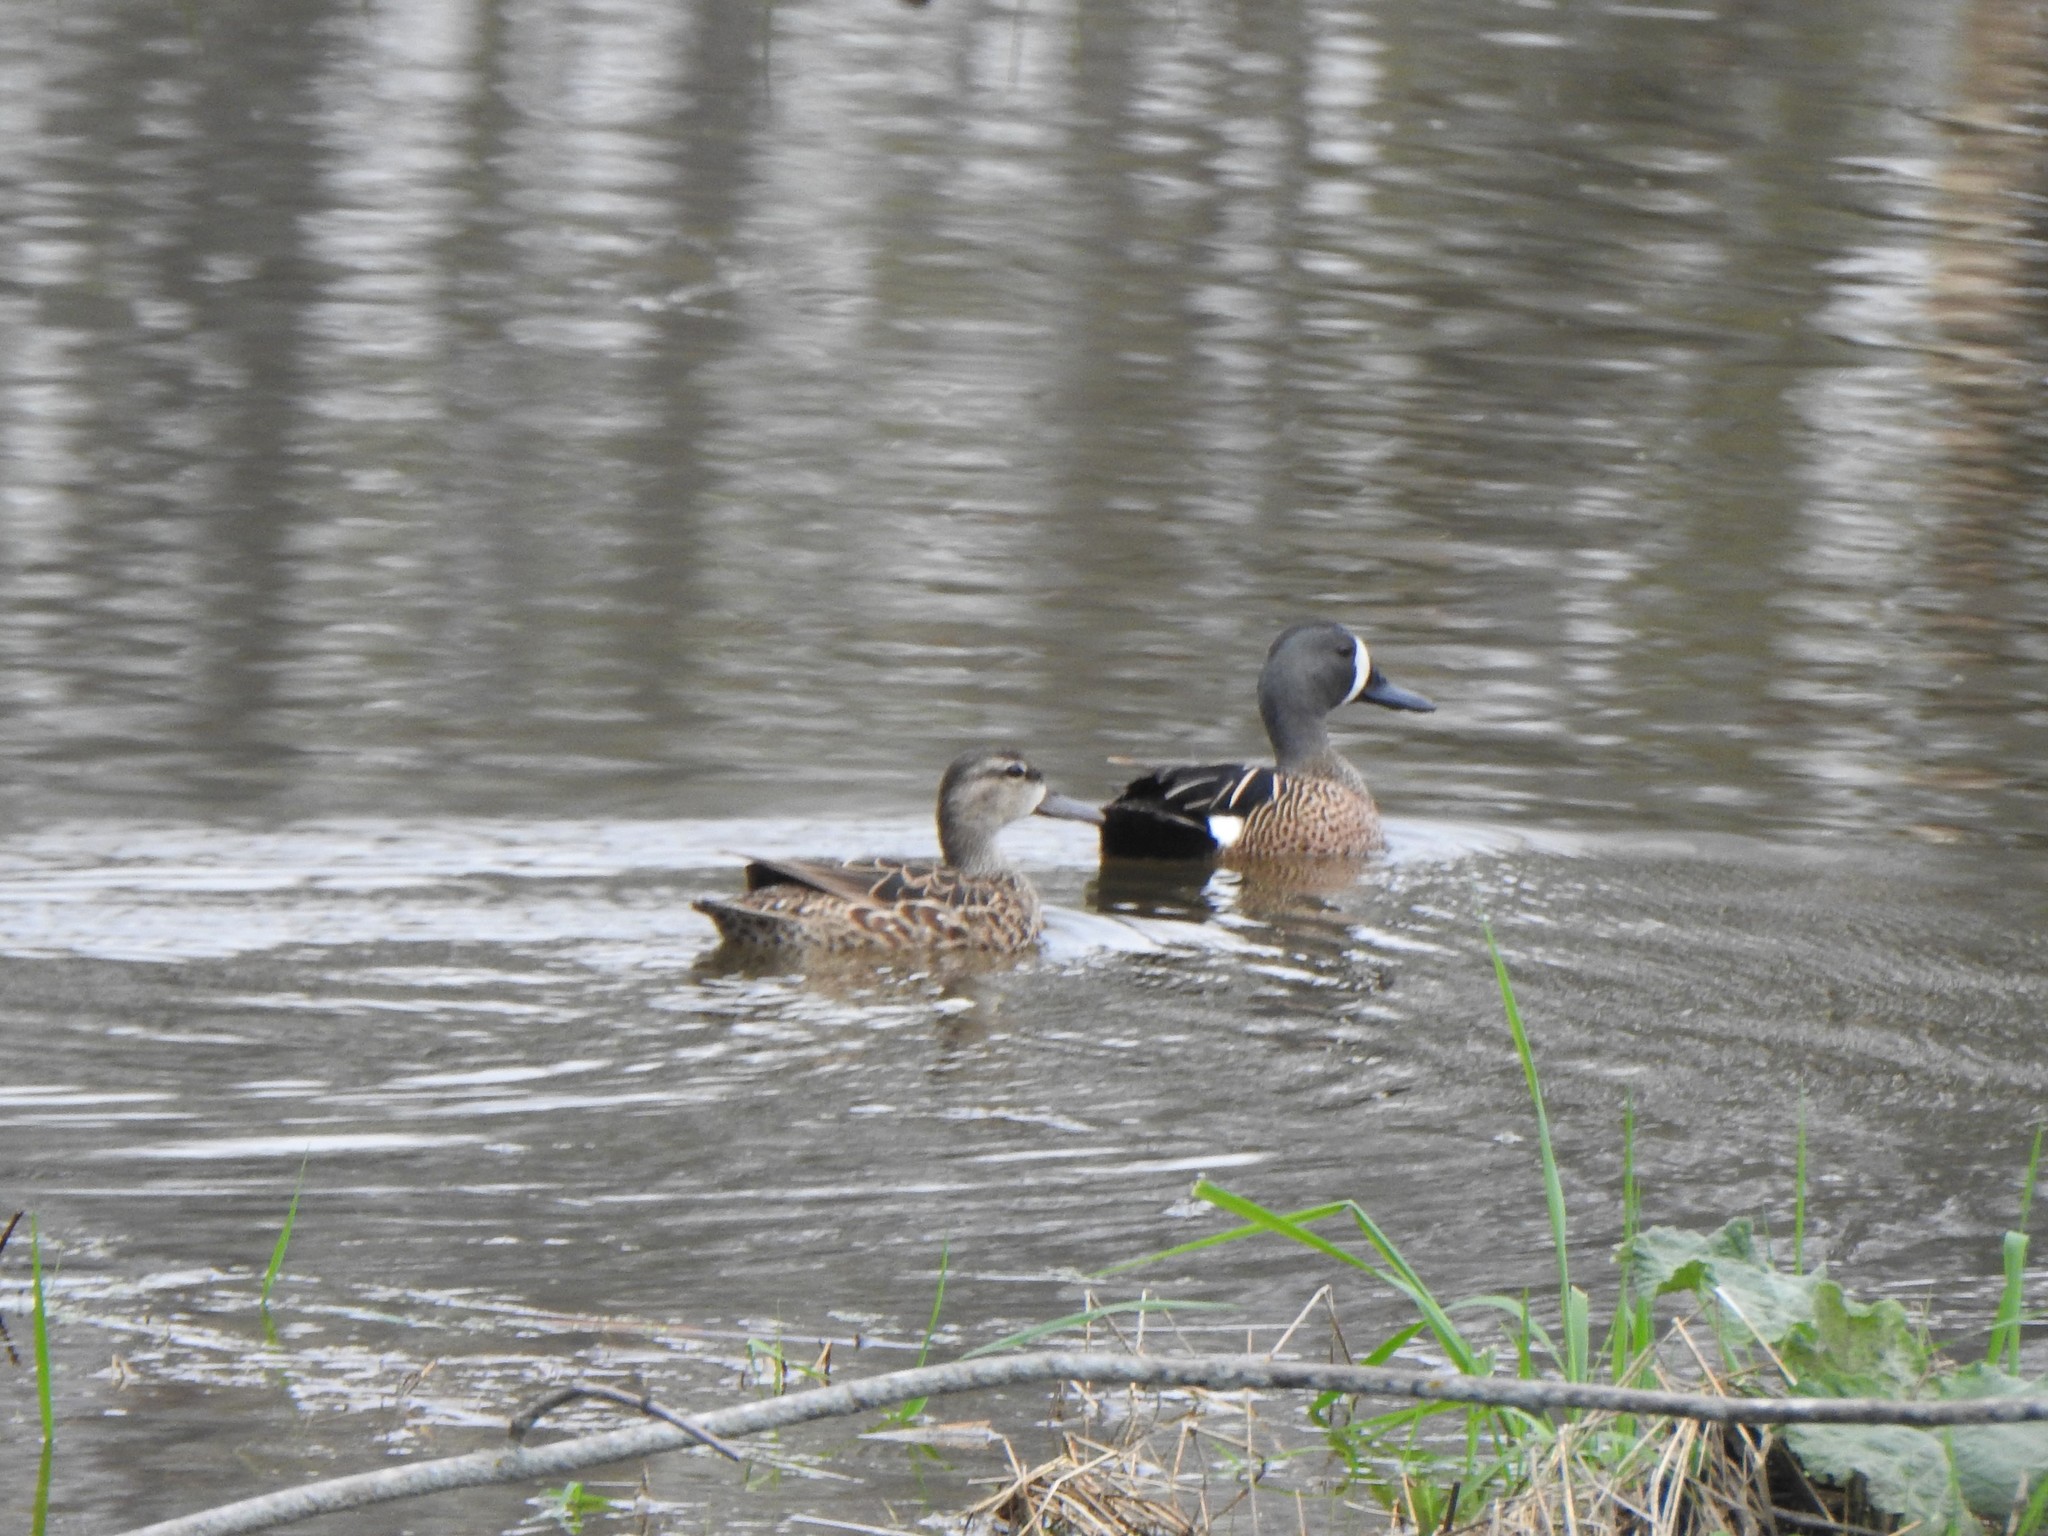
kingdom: Animalia
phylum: Chordata
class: Aves
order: Anseriformes
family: Anatidae
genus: Spatula
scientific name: Spatula discors
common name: Blue-winged teal
